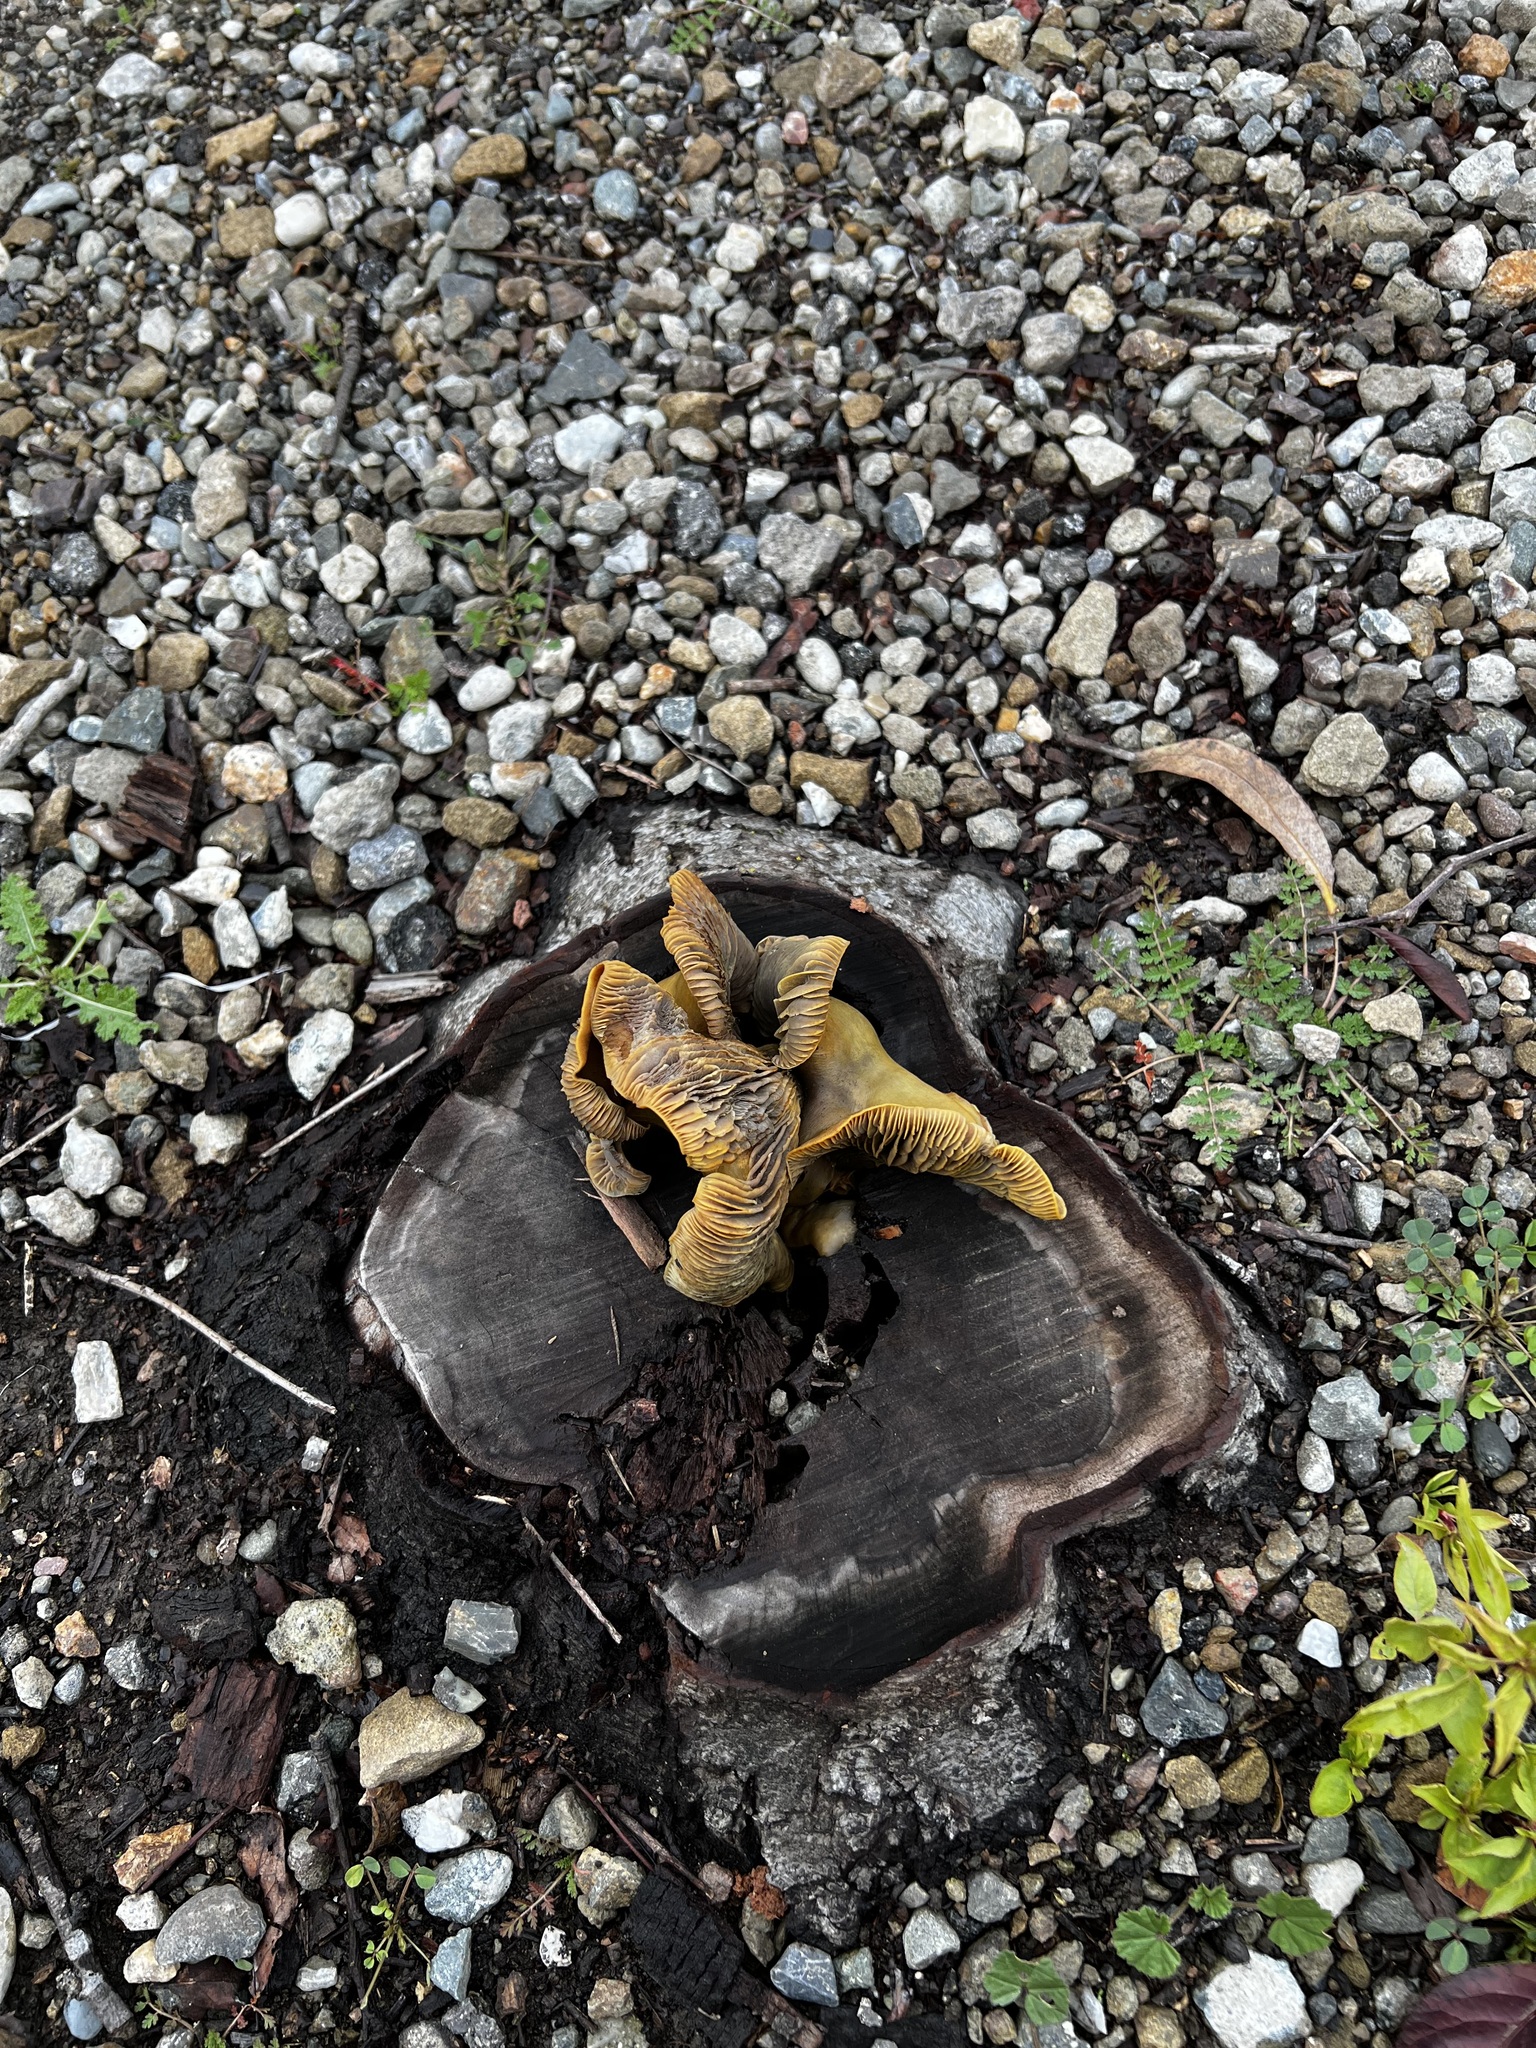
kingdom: Fungi
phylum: Basidiomycota
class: Agaricomycetes
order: Agaricales
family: Omphalotaceae
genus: Omphalotus
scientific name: Omphalotus olivascens
